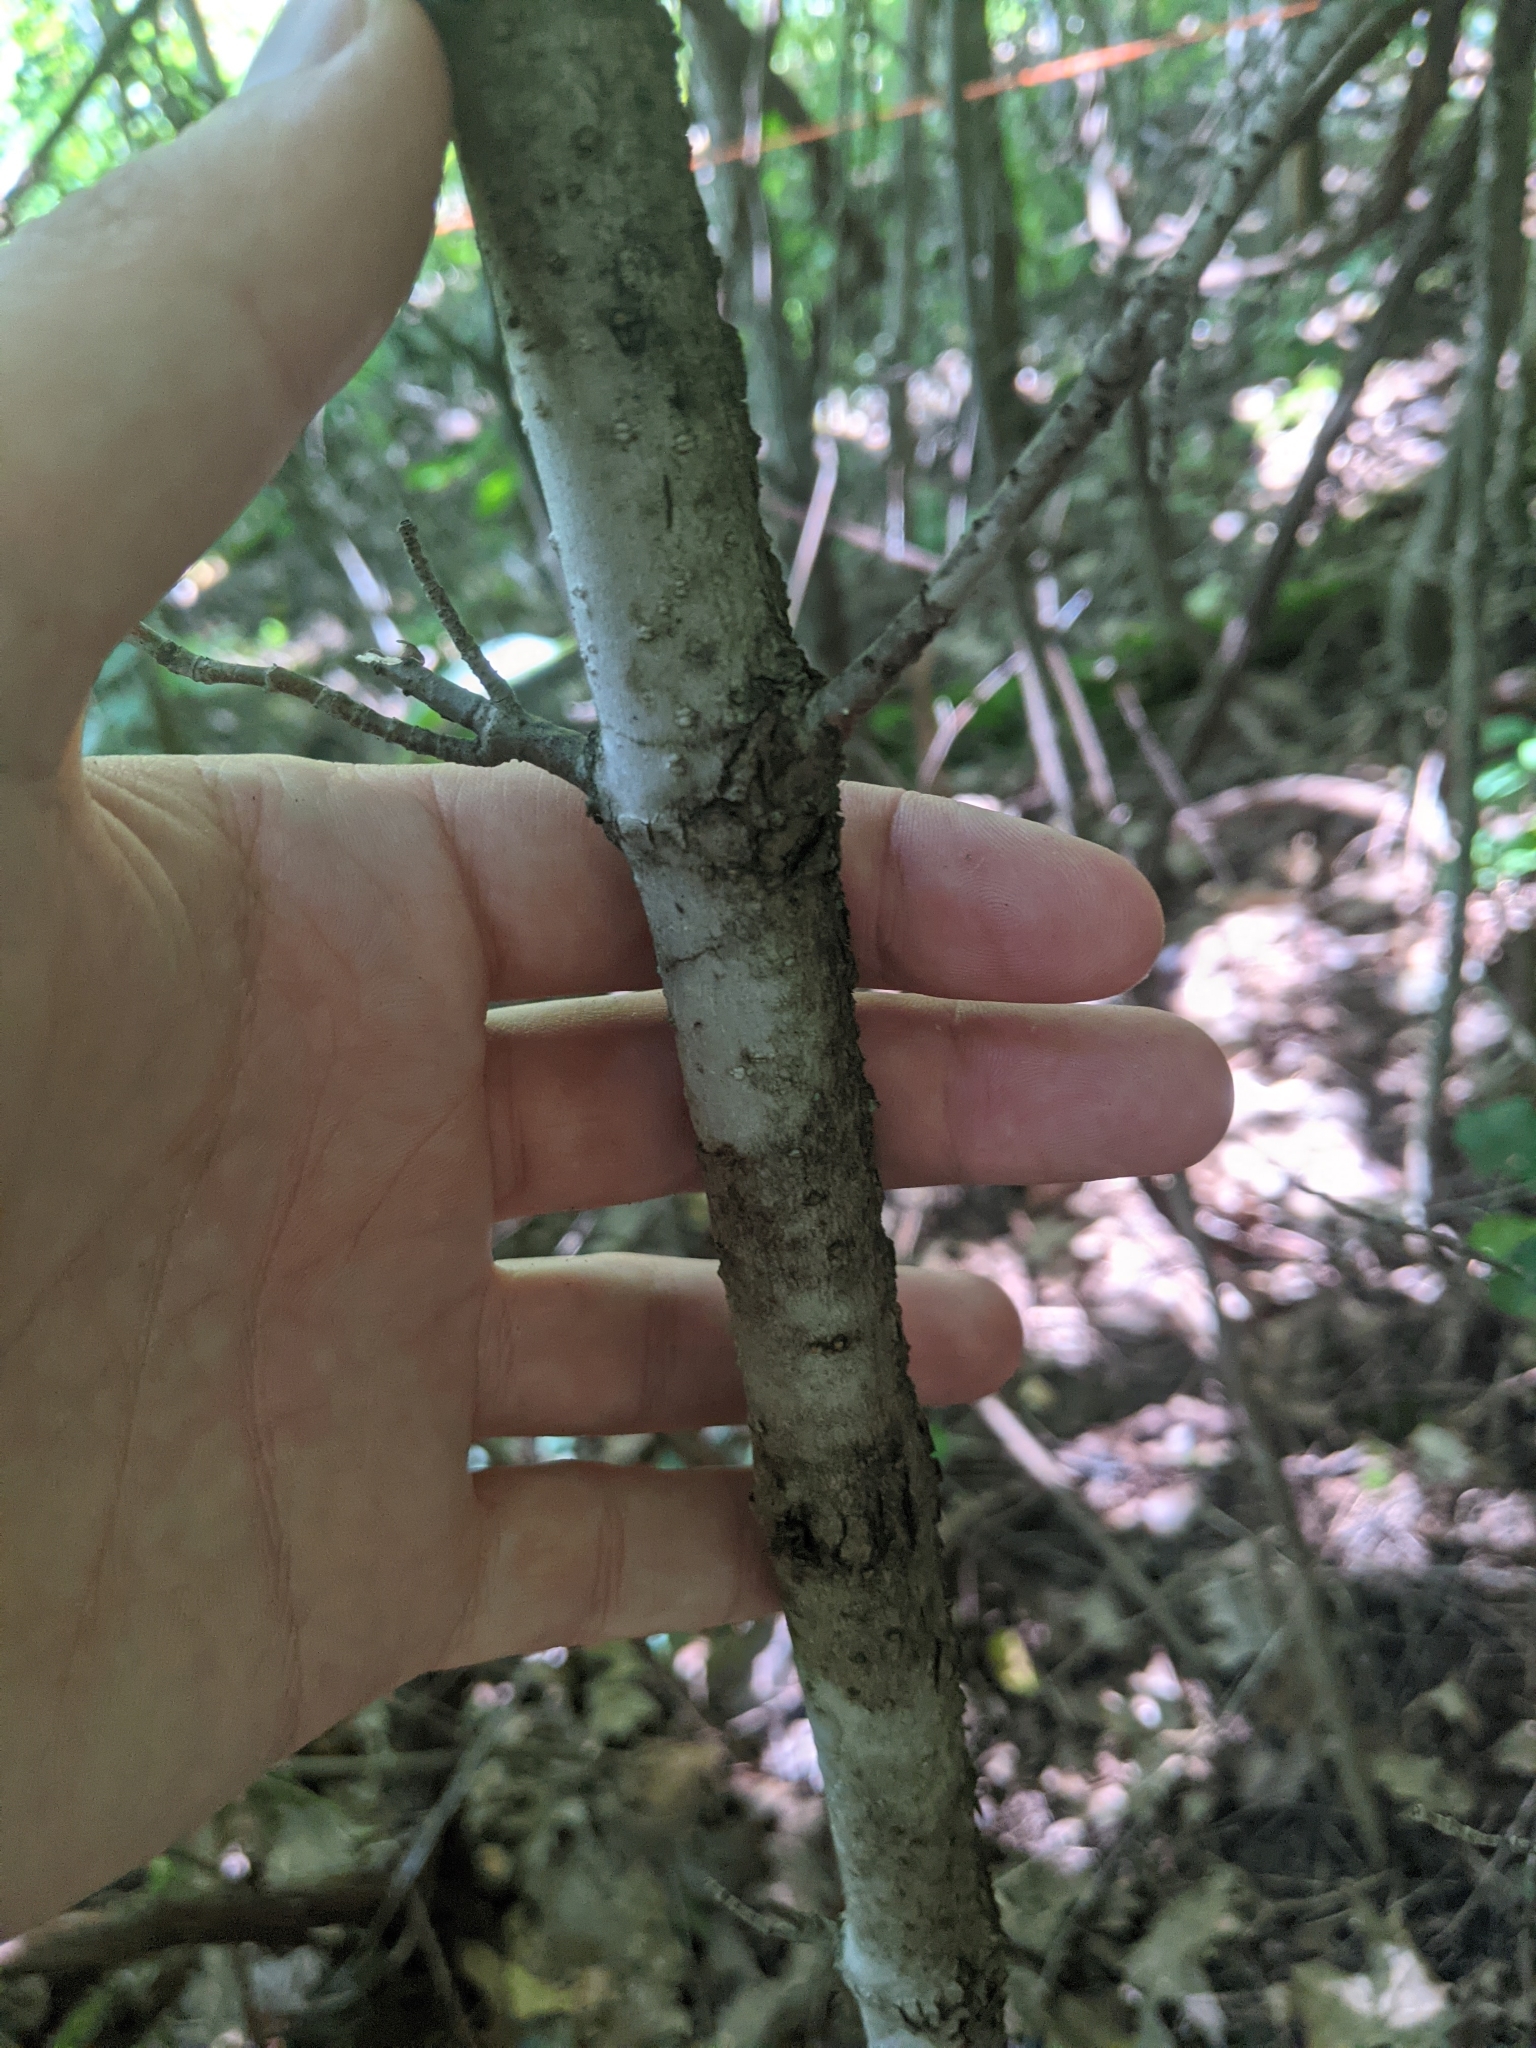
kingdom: Plantae
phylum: Tracheophyta
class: Magnoliopsida
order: Dipsacales
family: Viburnaceae
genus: Viburnum
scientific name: Viburnum lentago
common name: Black haw
